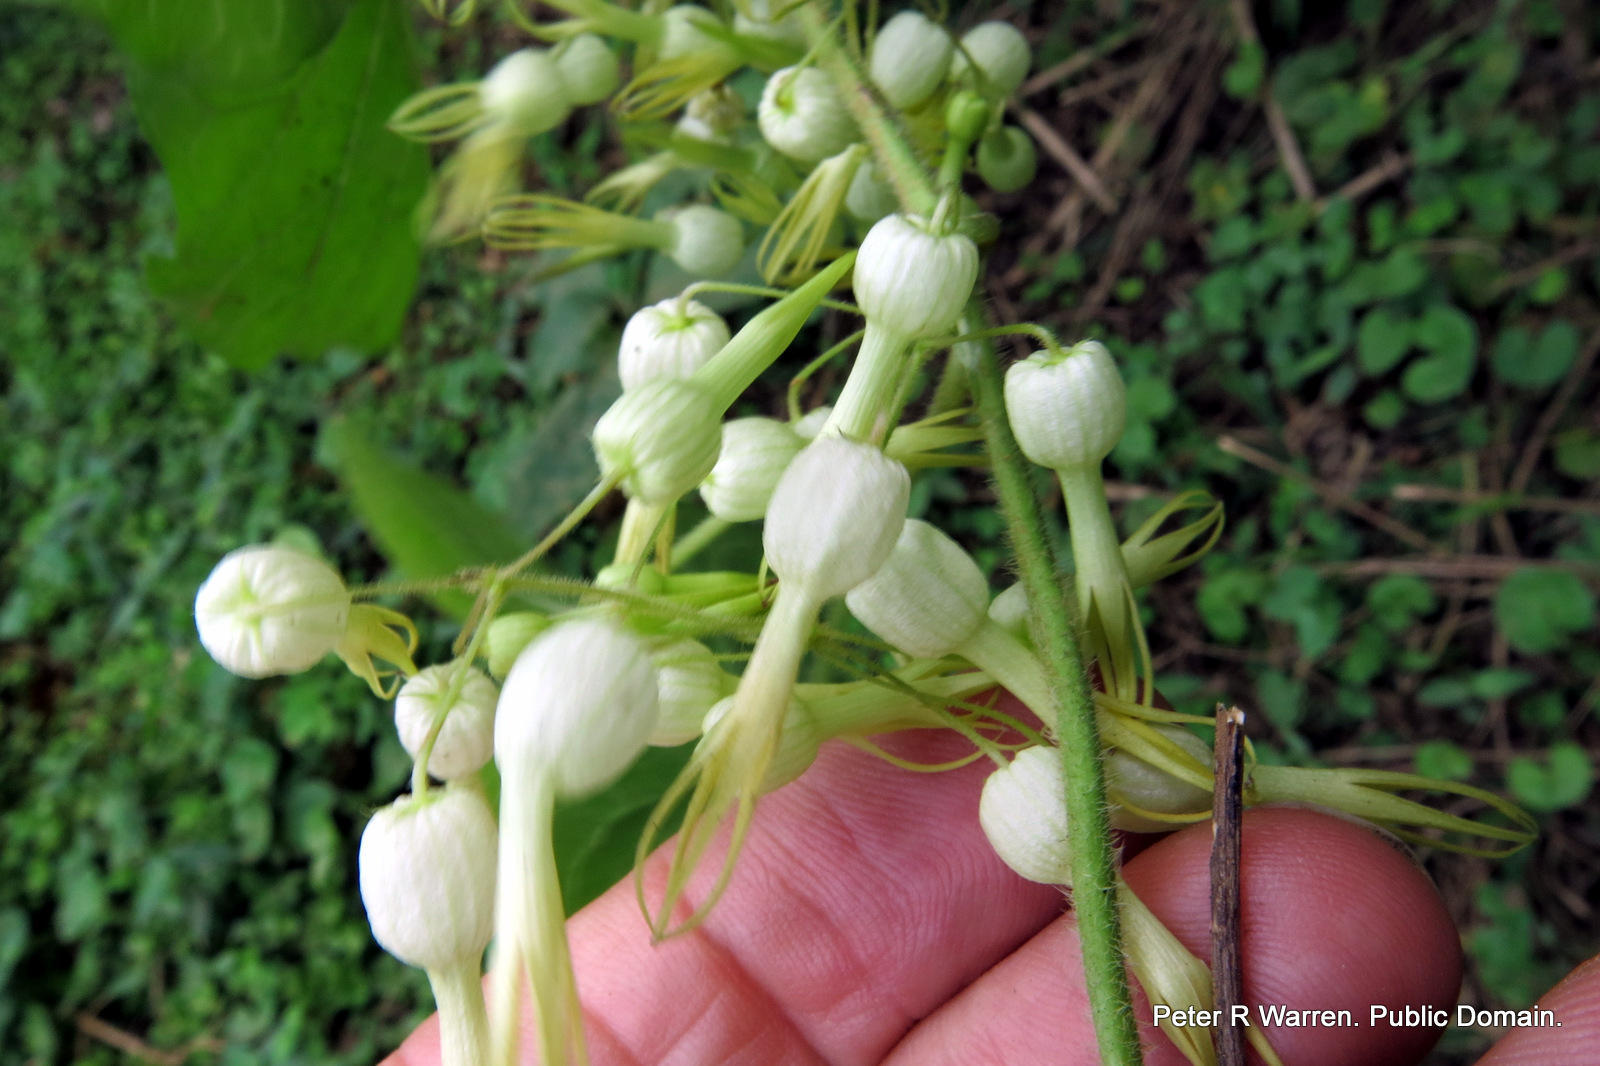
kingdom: Plantae
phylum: Tracheophyta
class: Magnoliopsida
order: Gentianales
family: Apocynaceae
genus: Riocreuxia
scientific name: Riocreuxia torulosa
